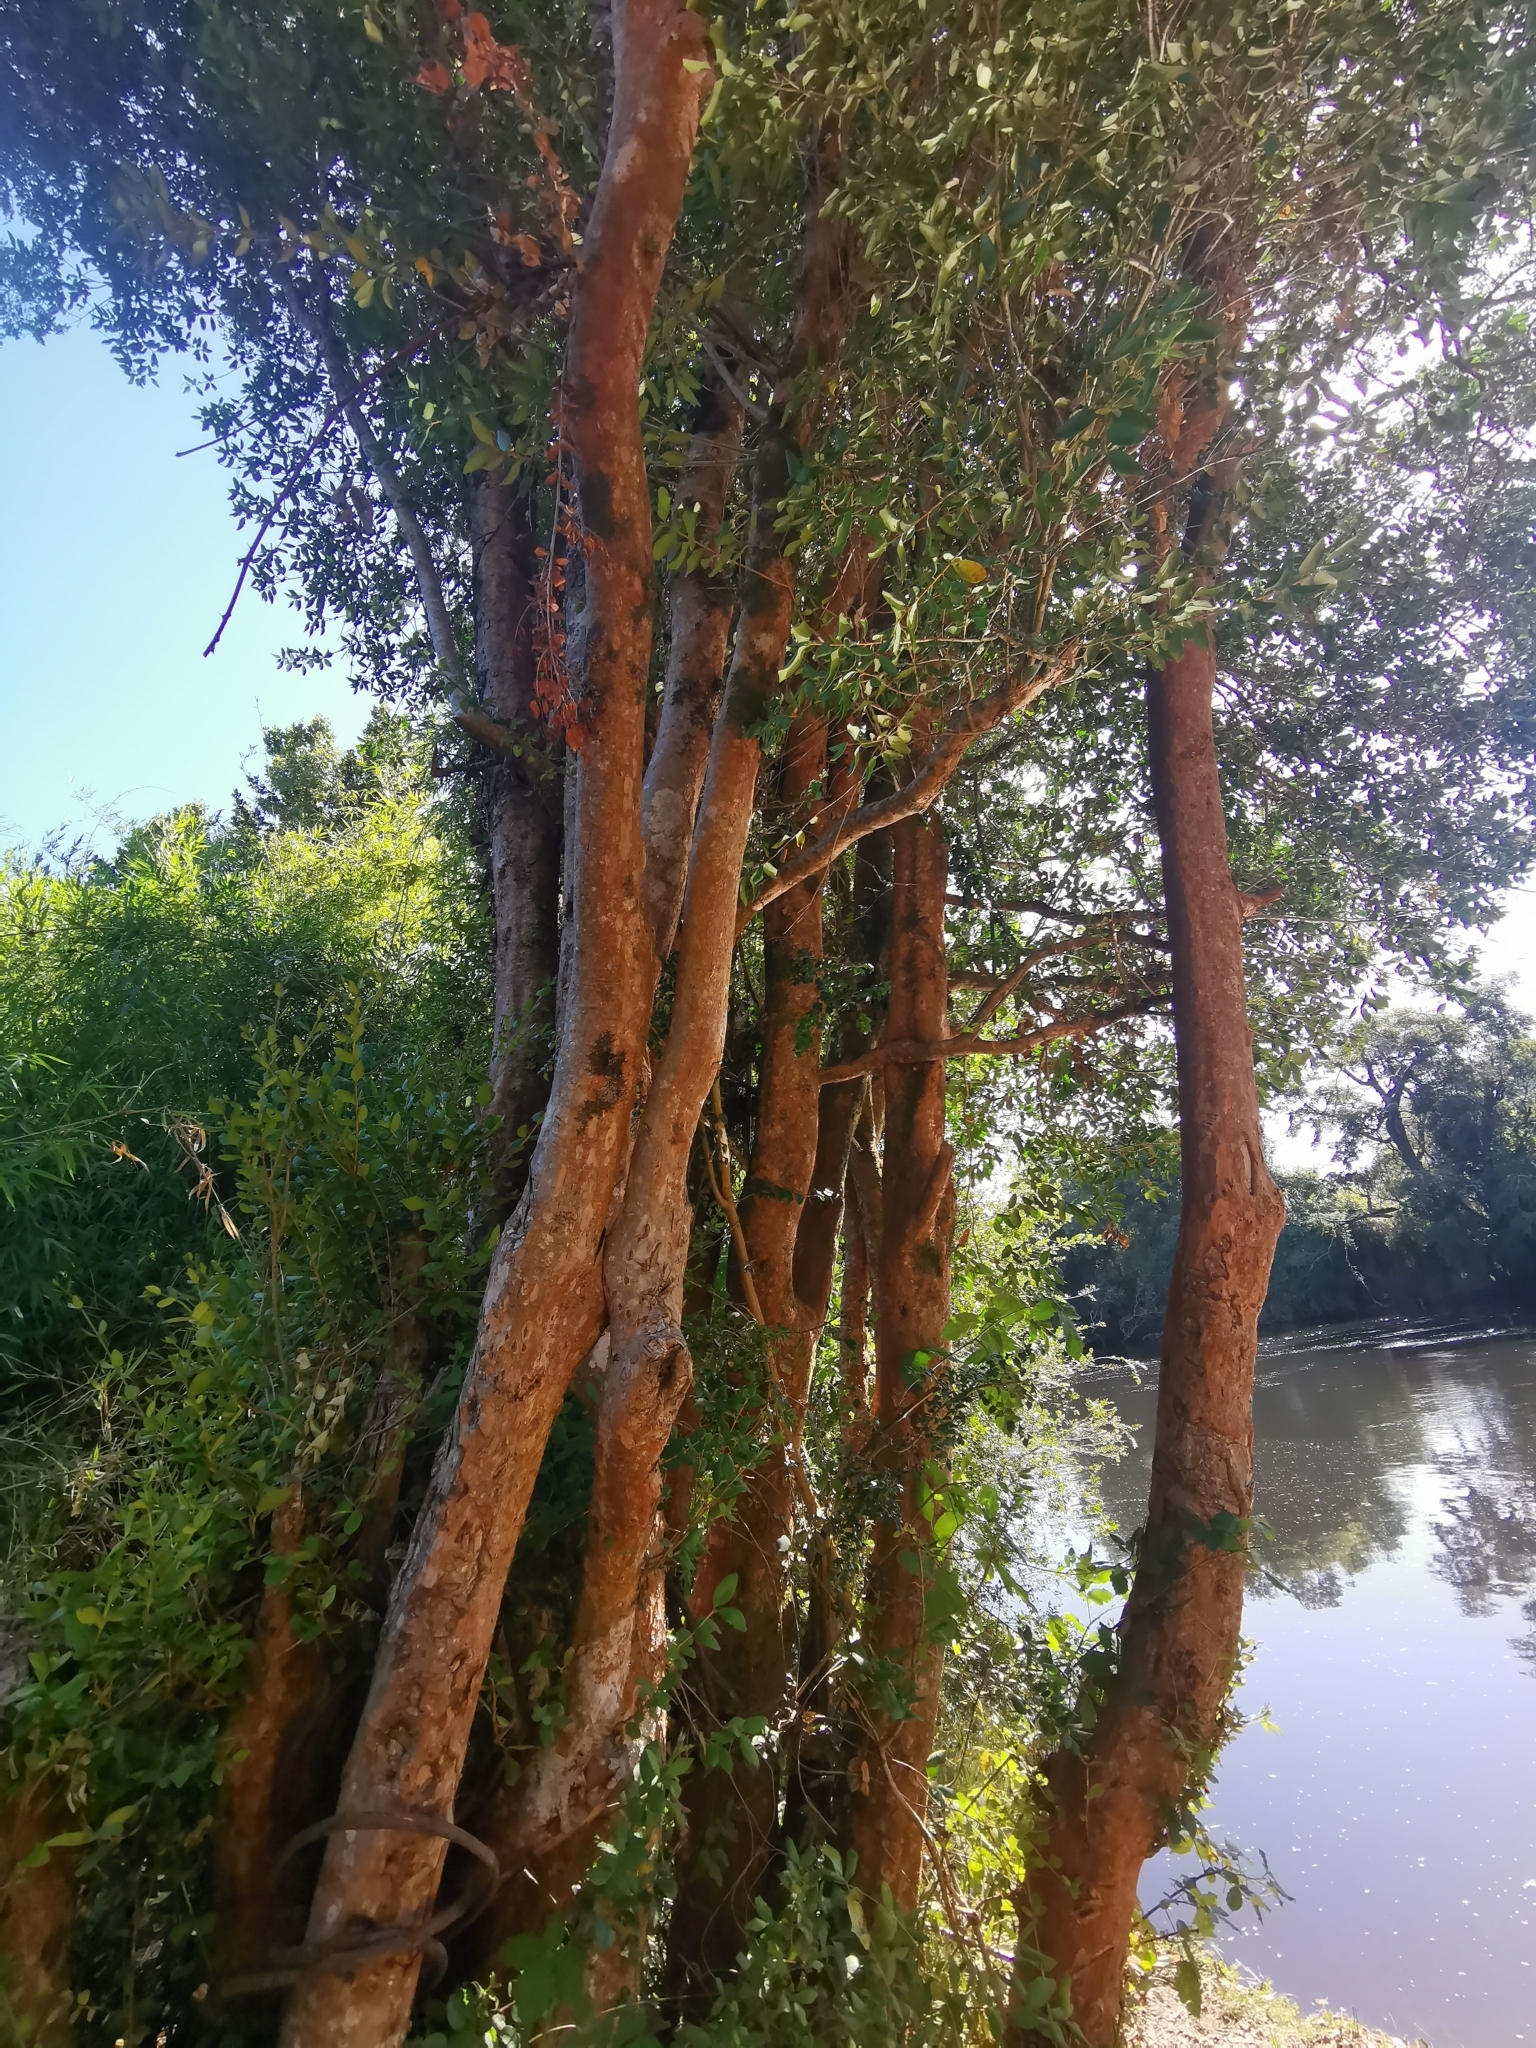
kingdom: Plantae
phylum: Tracheophyta
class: Magnoliopsida
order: Myrtales
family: Myrtaceae
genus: Blepharocalyx
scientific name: Blepharocalyx cruckshanksii
